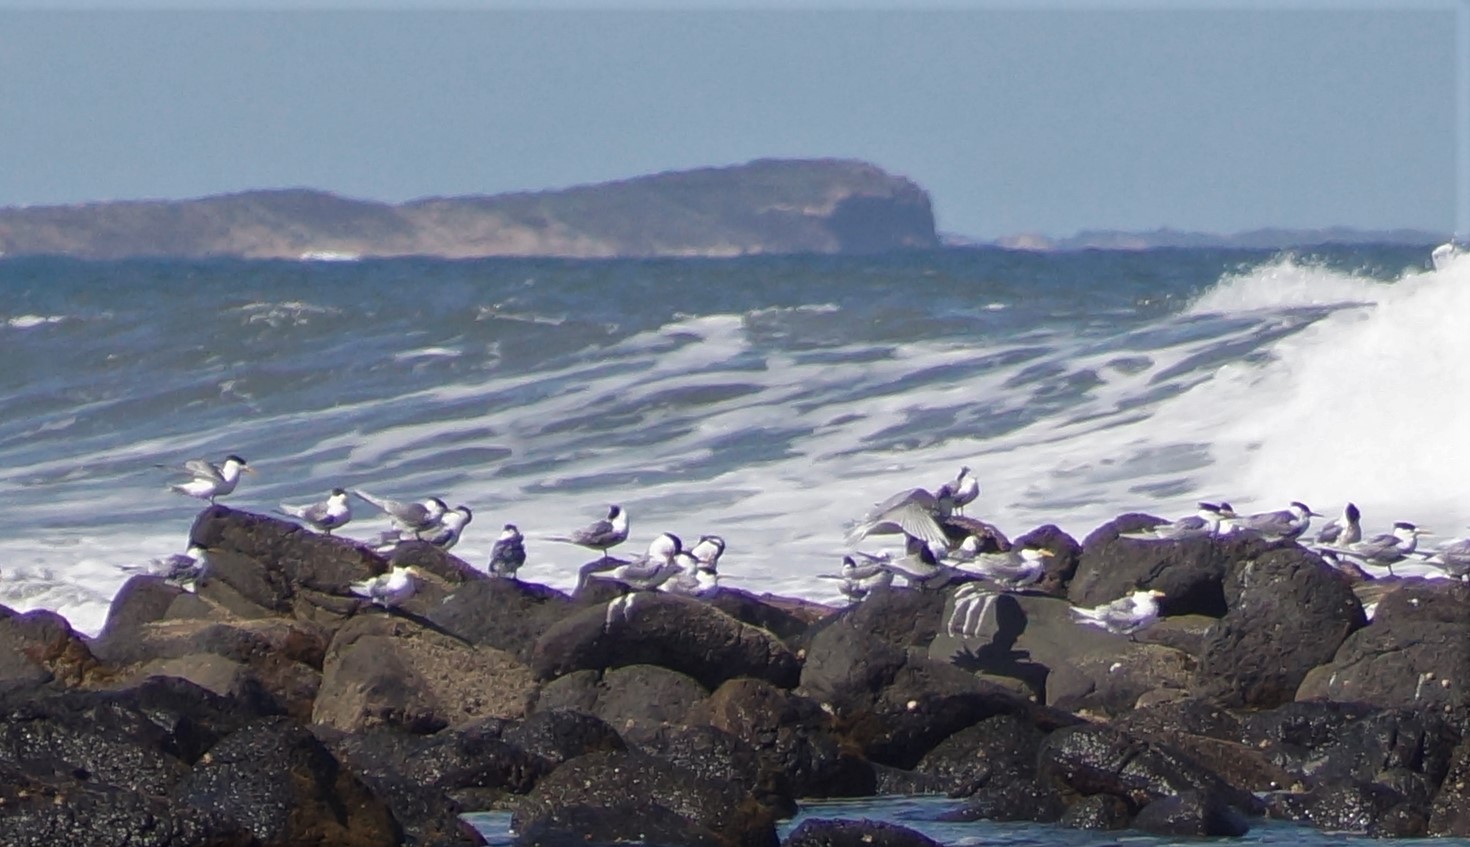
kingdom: Animalia
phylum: Chordata
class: Aves
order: Charadriiformes
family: Laridae
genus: Thalasseus
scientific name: Thalasseus bergii
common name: Greater crested tern
